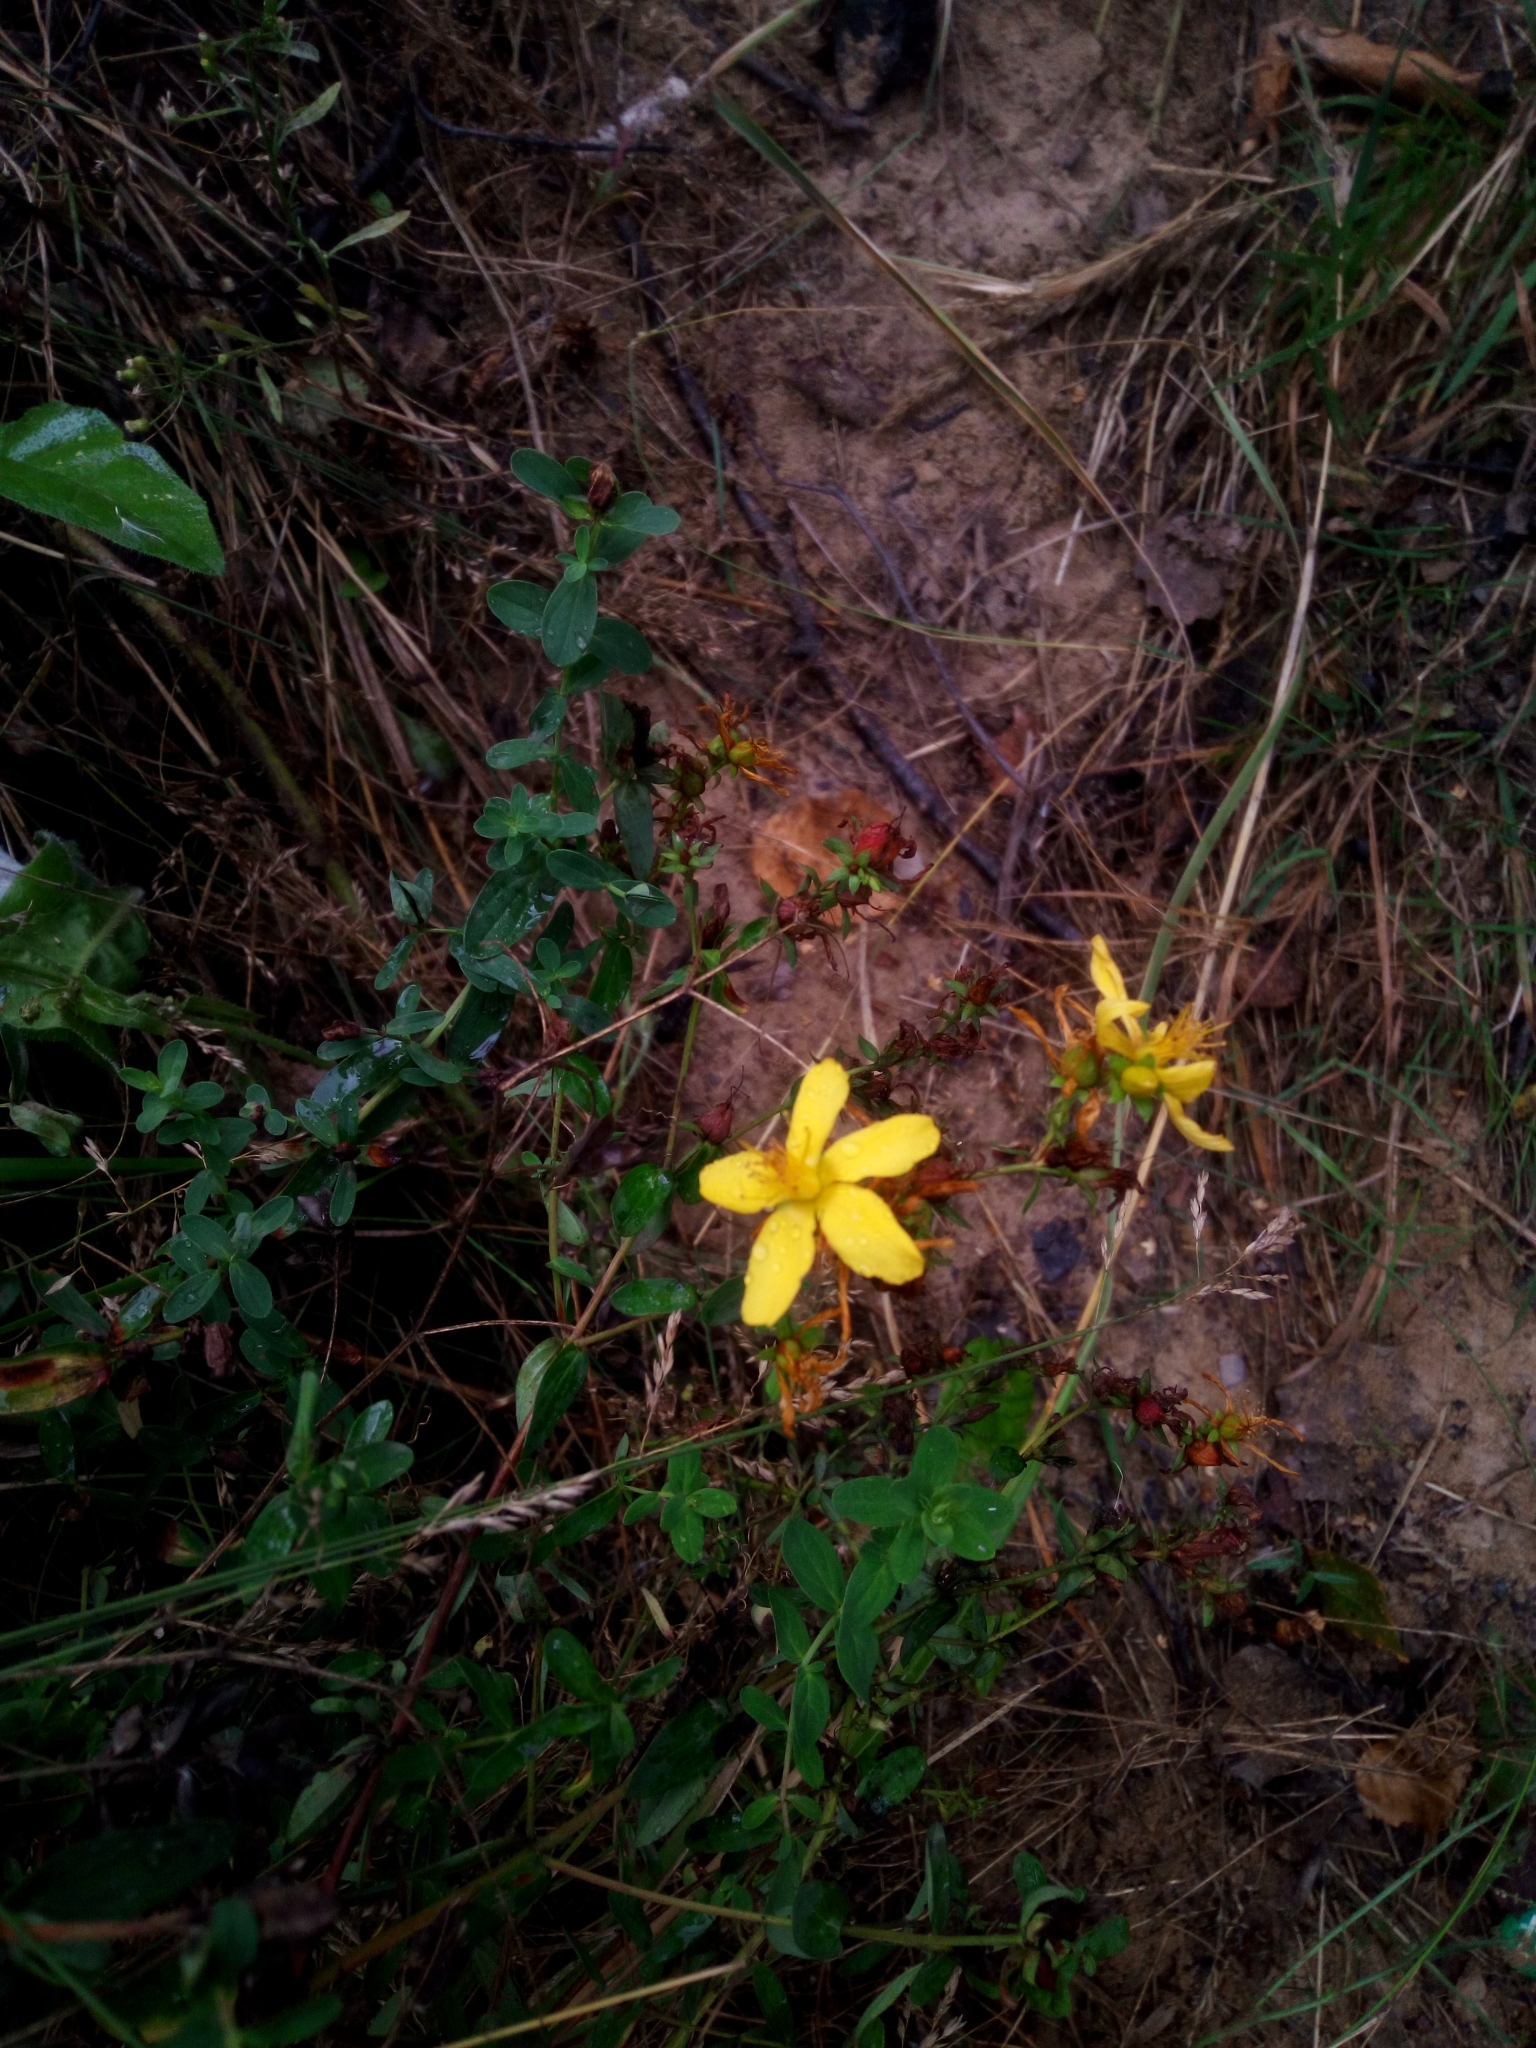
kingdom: Plantae
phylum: Tracheophyta
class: Magnoliopsida
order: Malpighiales
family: Hypericaceae
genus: Hypericum
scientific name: Hypericum perforatum
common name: Common st. johnswort
